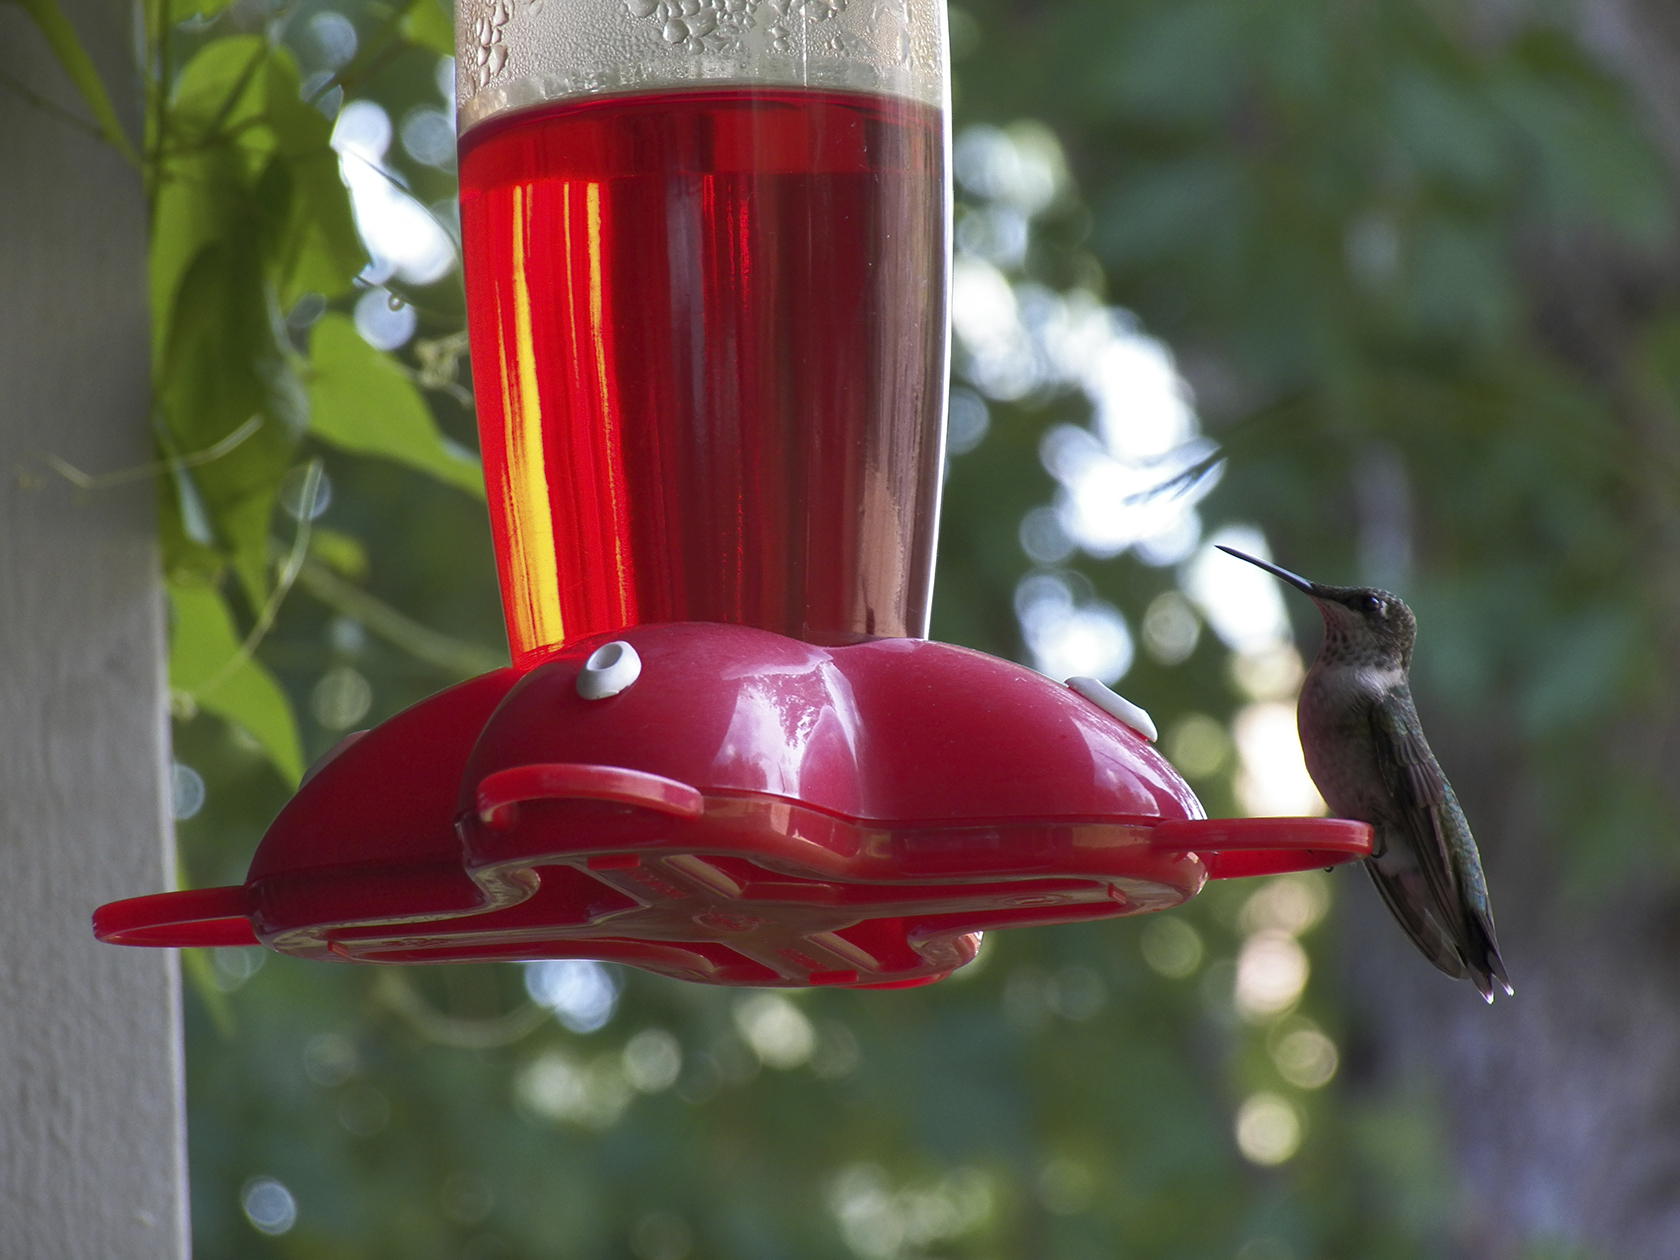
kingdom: Animalia
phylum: Chordata
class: Aves
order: Apodiformes
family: Trochilidae
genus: Archilochus
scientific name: Archilochus colubris
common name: Ruby-throated hummingbird
